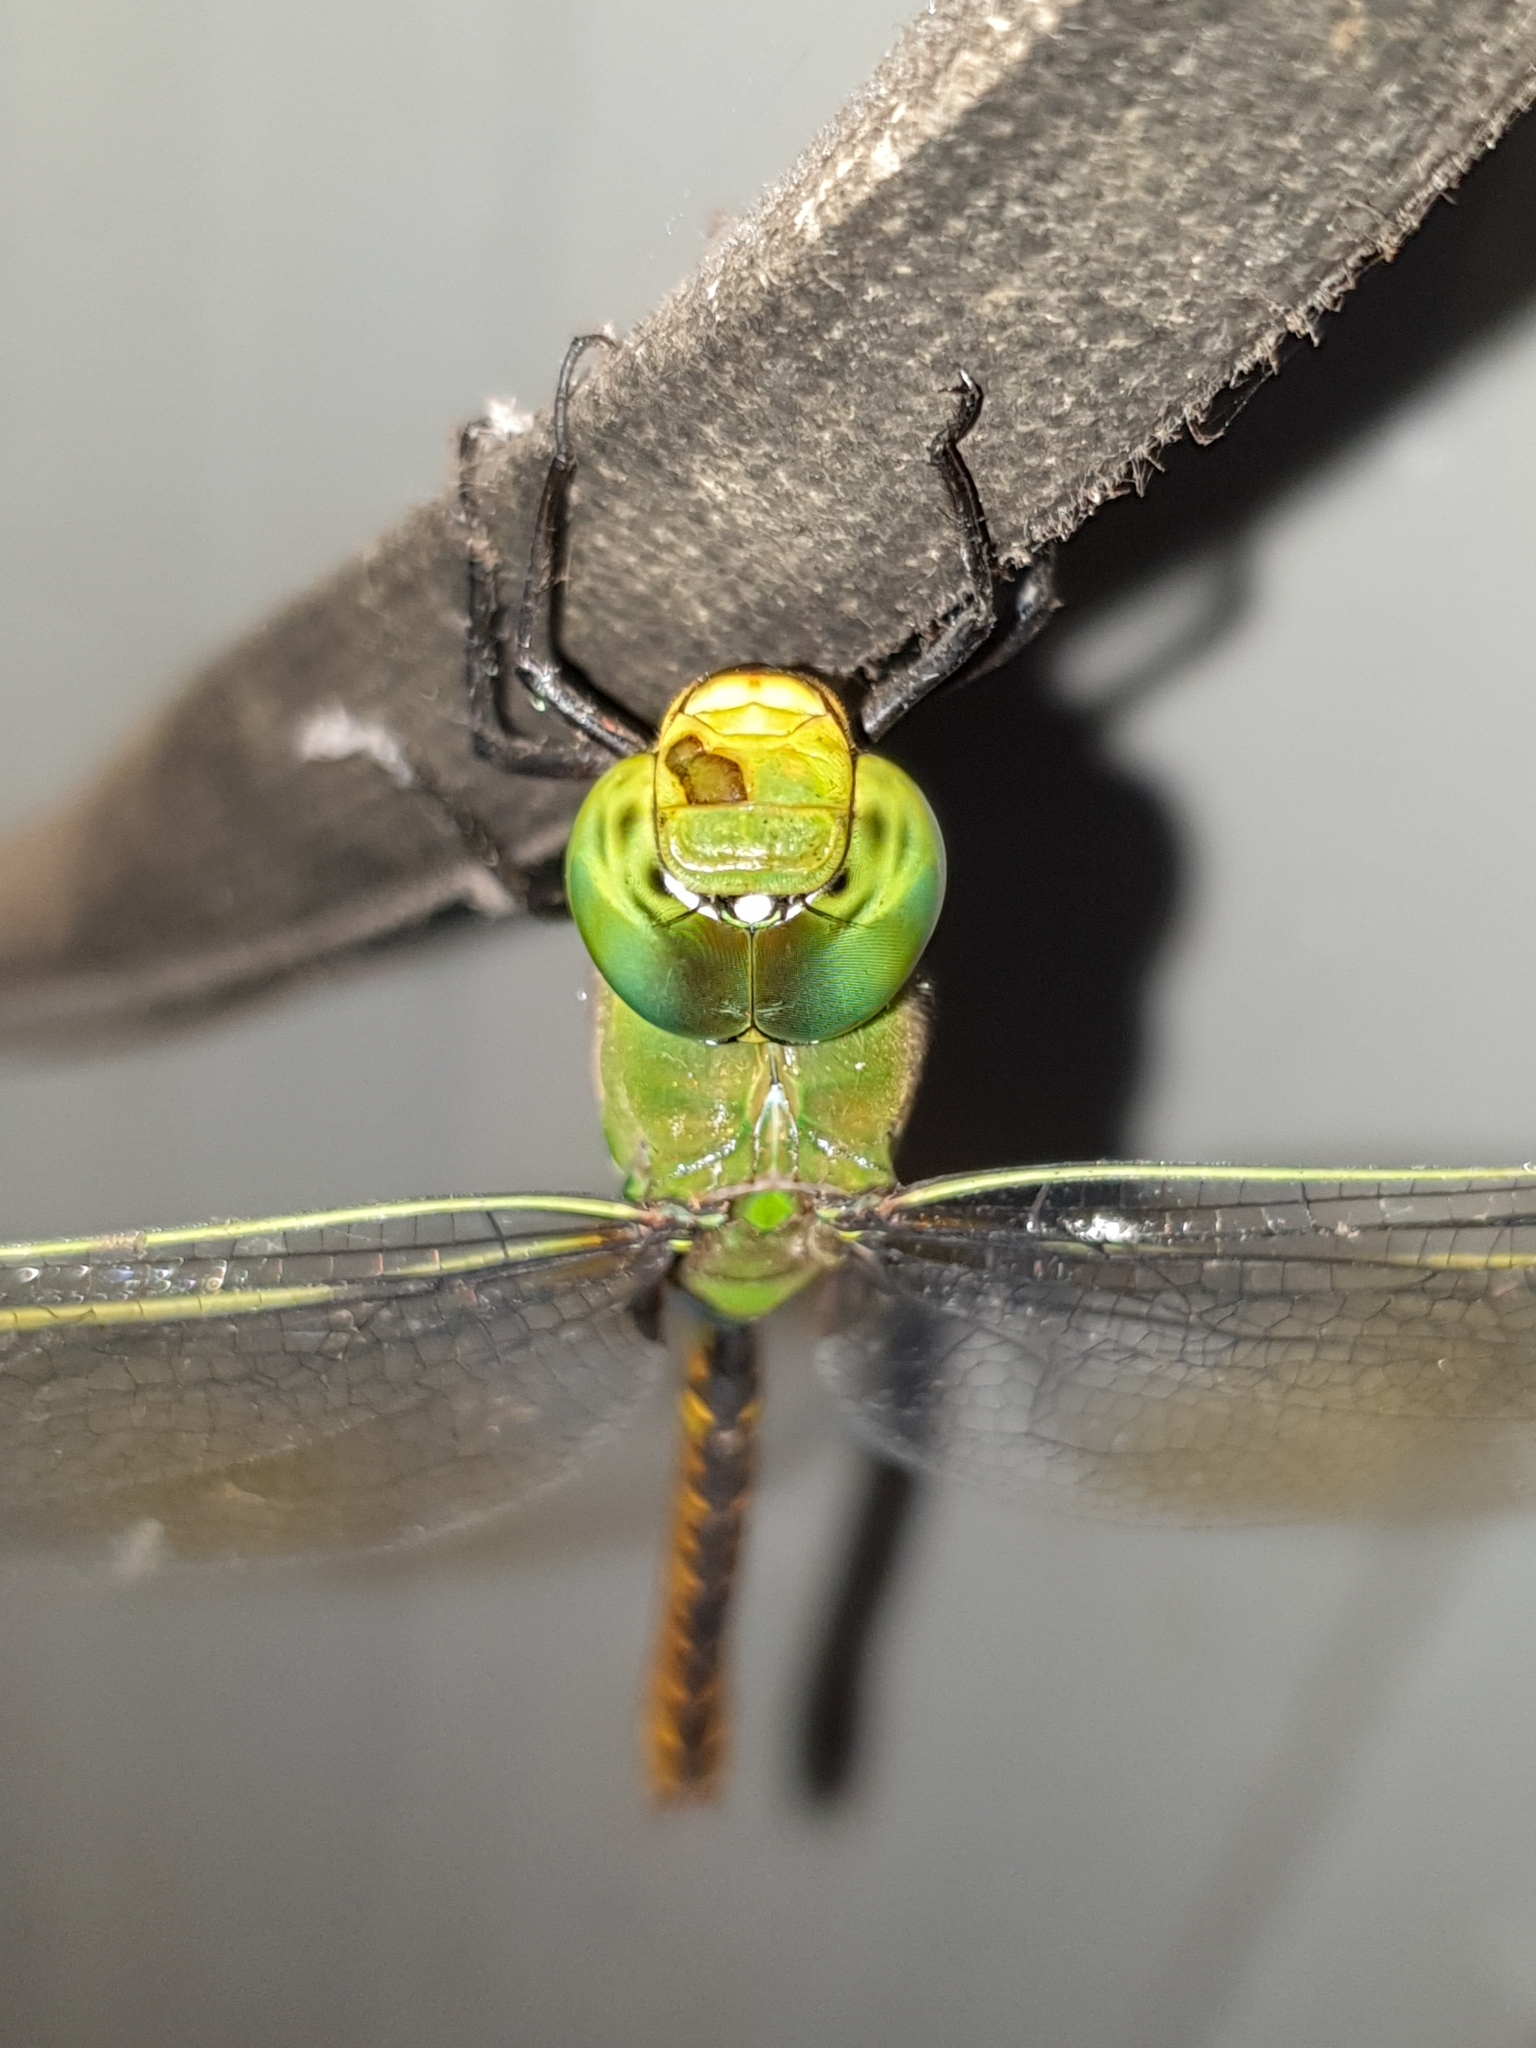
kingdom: Animalia
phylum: Arthropoda
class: Insecta
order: Odonata
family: Aeshnidae
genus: Anax
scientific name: Anax indicus
